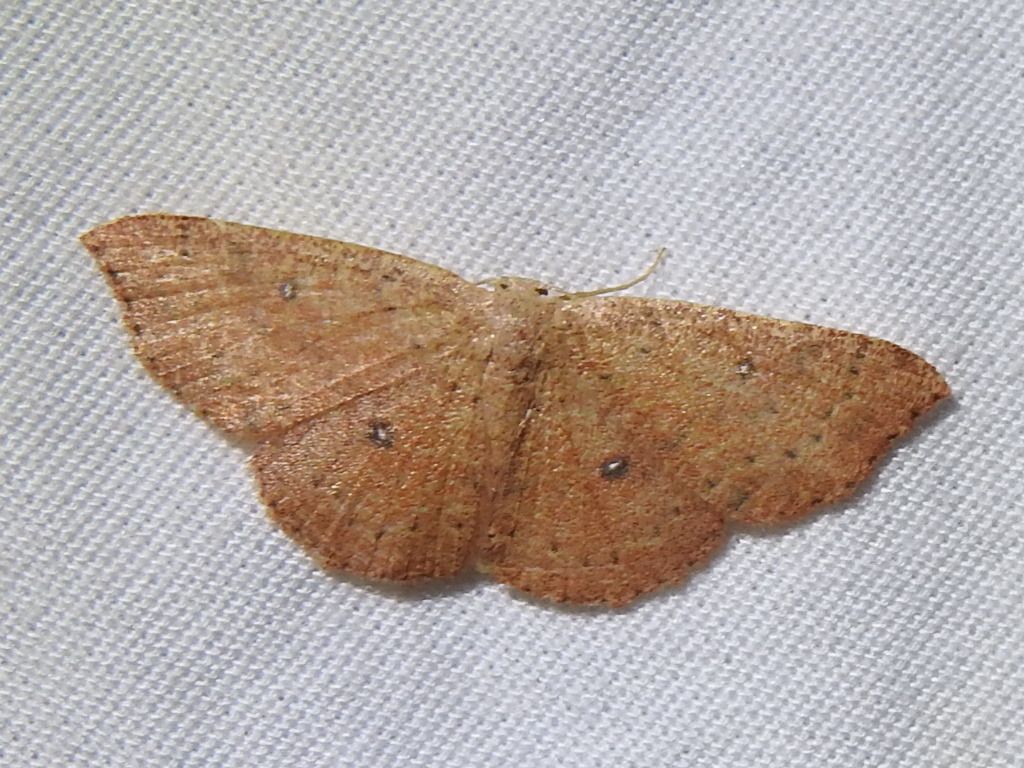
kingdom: Animalia
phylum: Arthropoda
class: Insecta
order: Lepidoptera
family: Geometridae
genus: Cyclophora
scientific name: Cyclophora packardi
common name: Packard's wave
